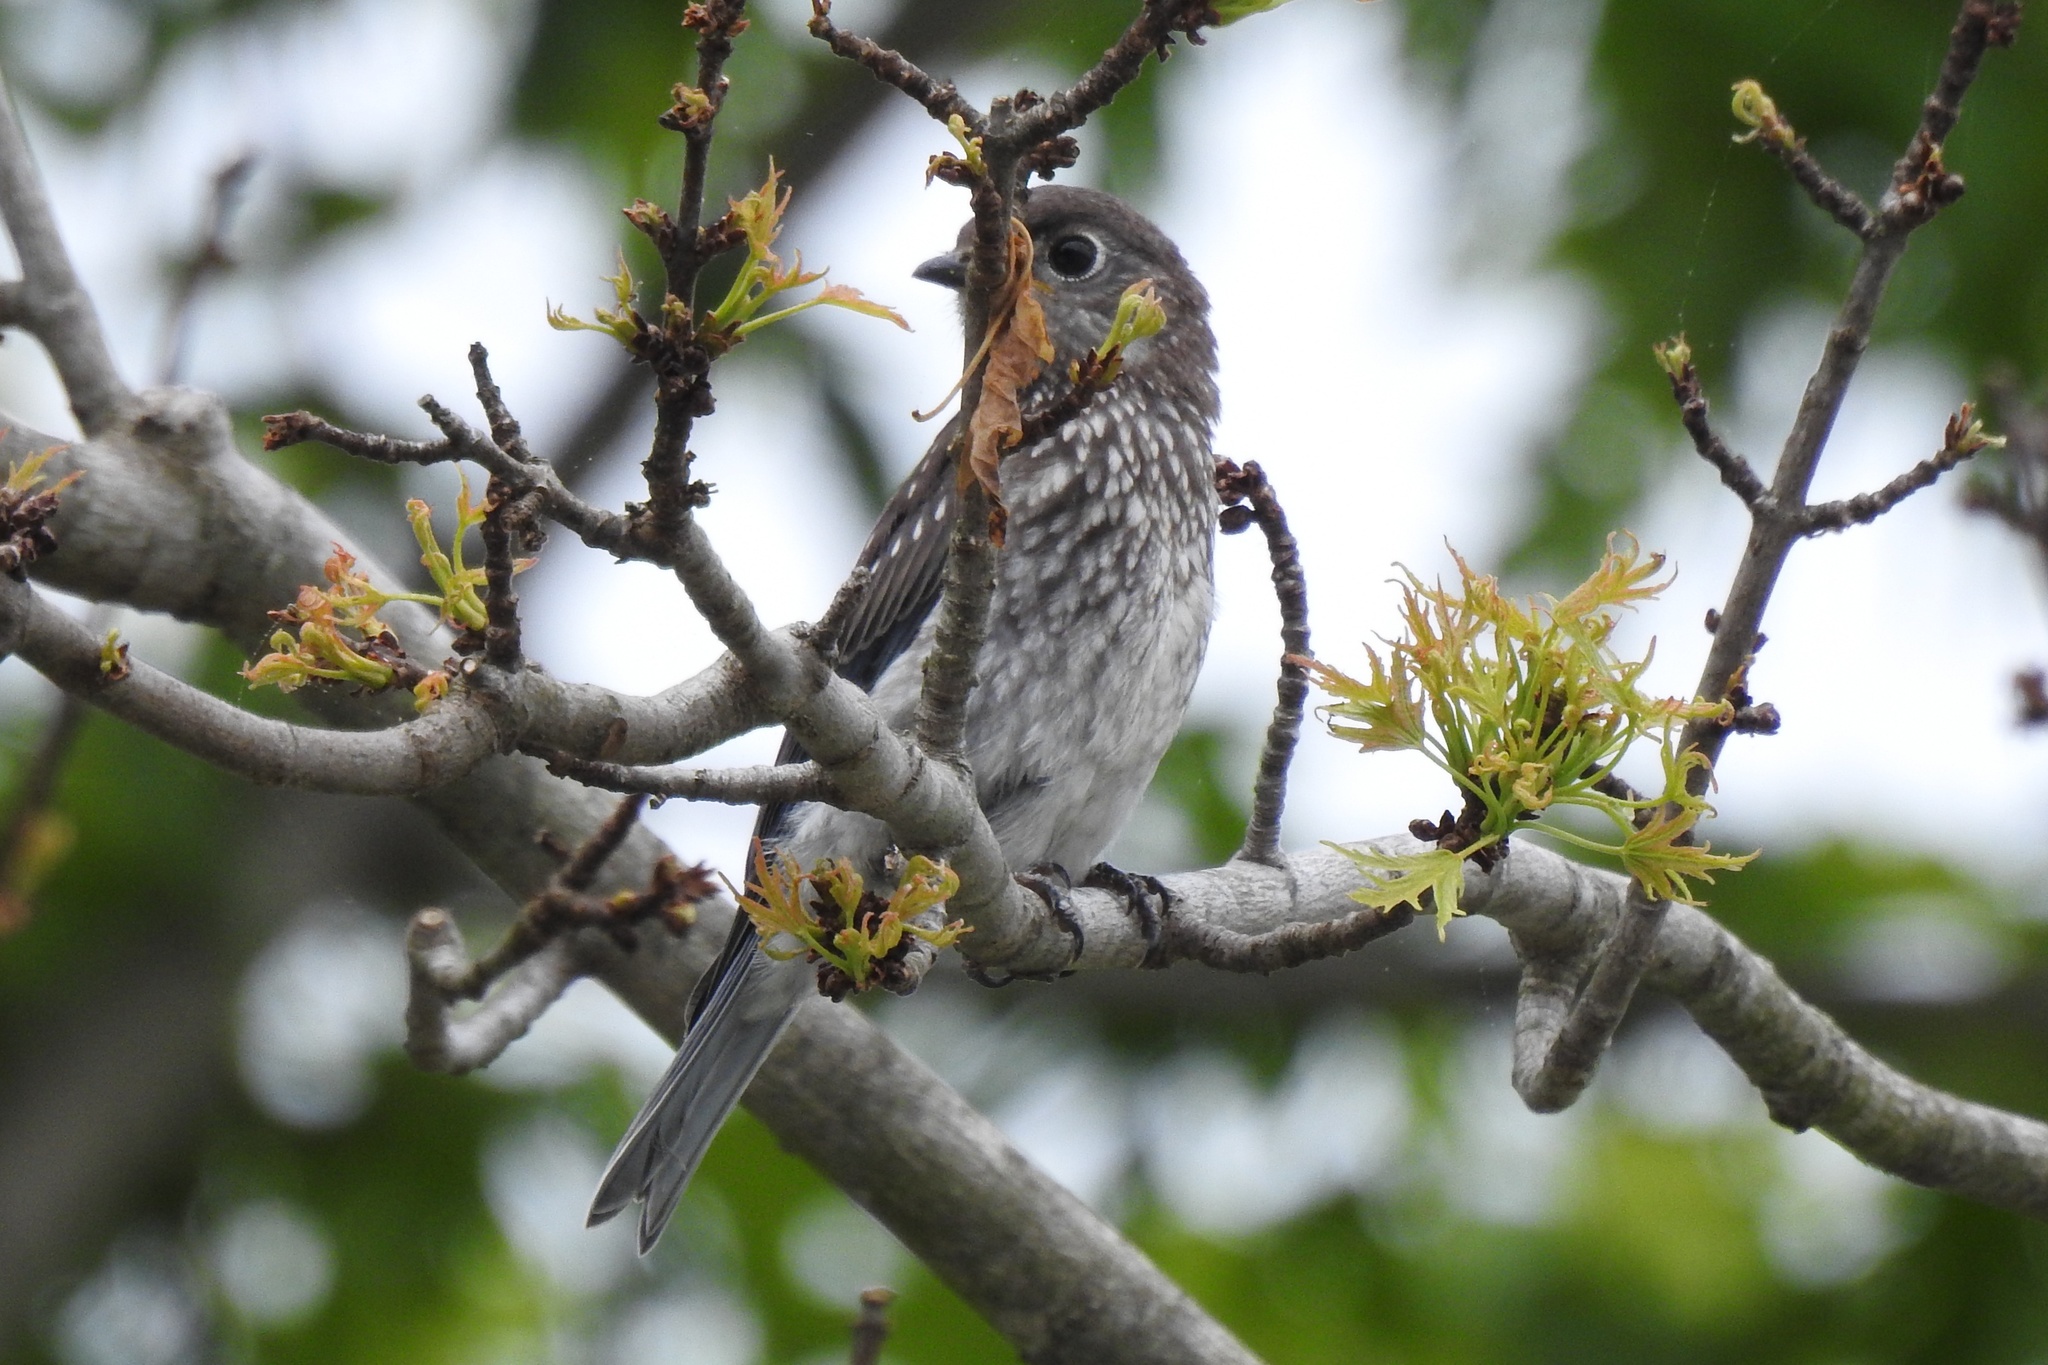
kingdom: Animalia
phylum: Chordata
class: Aves
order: Passeriformes
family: Turdidae
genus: Sialia
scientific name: Sialia sialis
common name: Eastern bluebird
